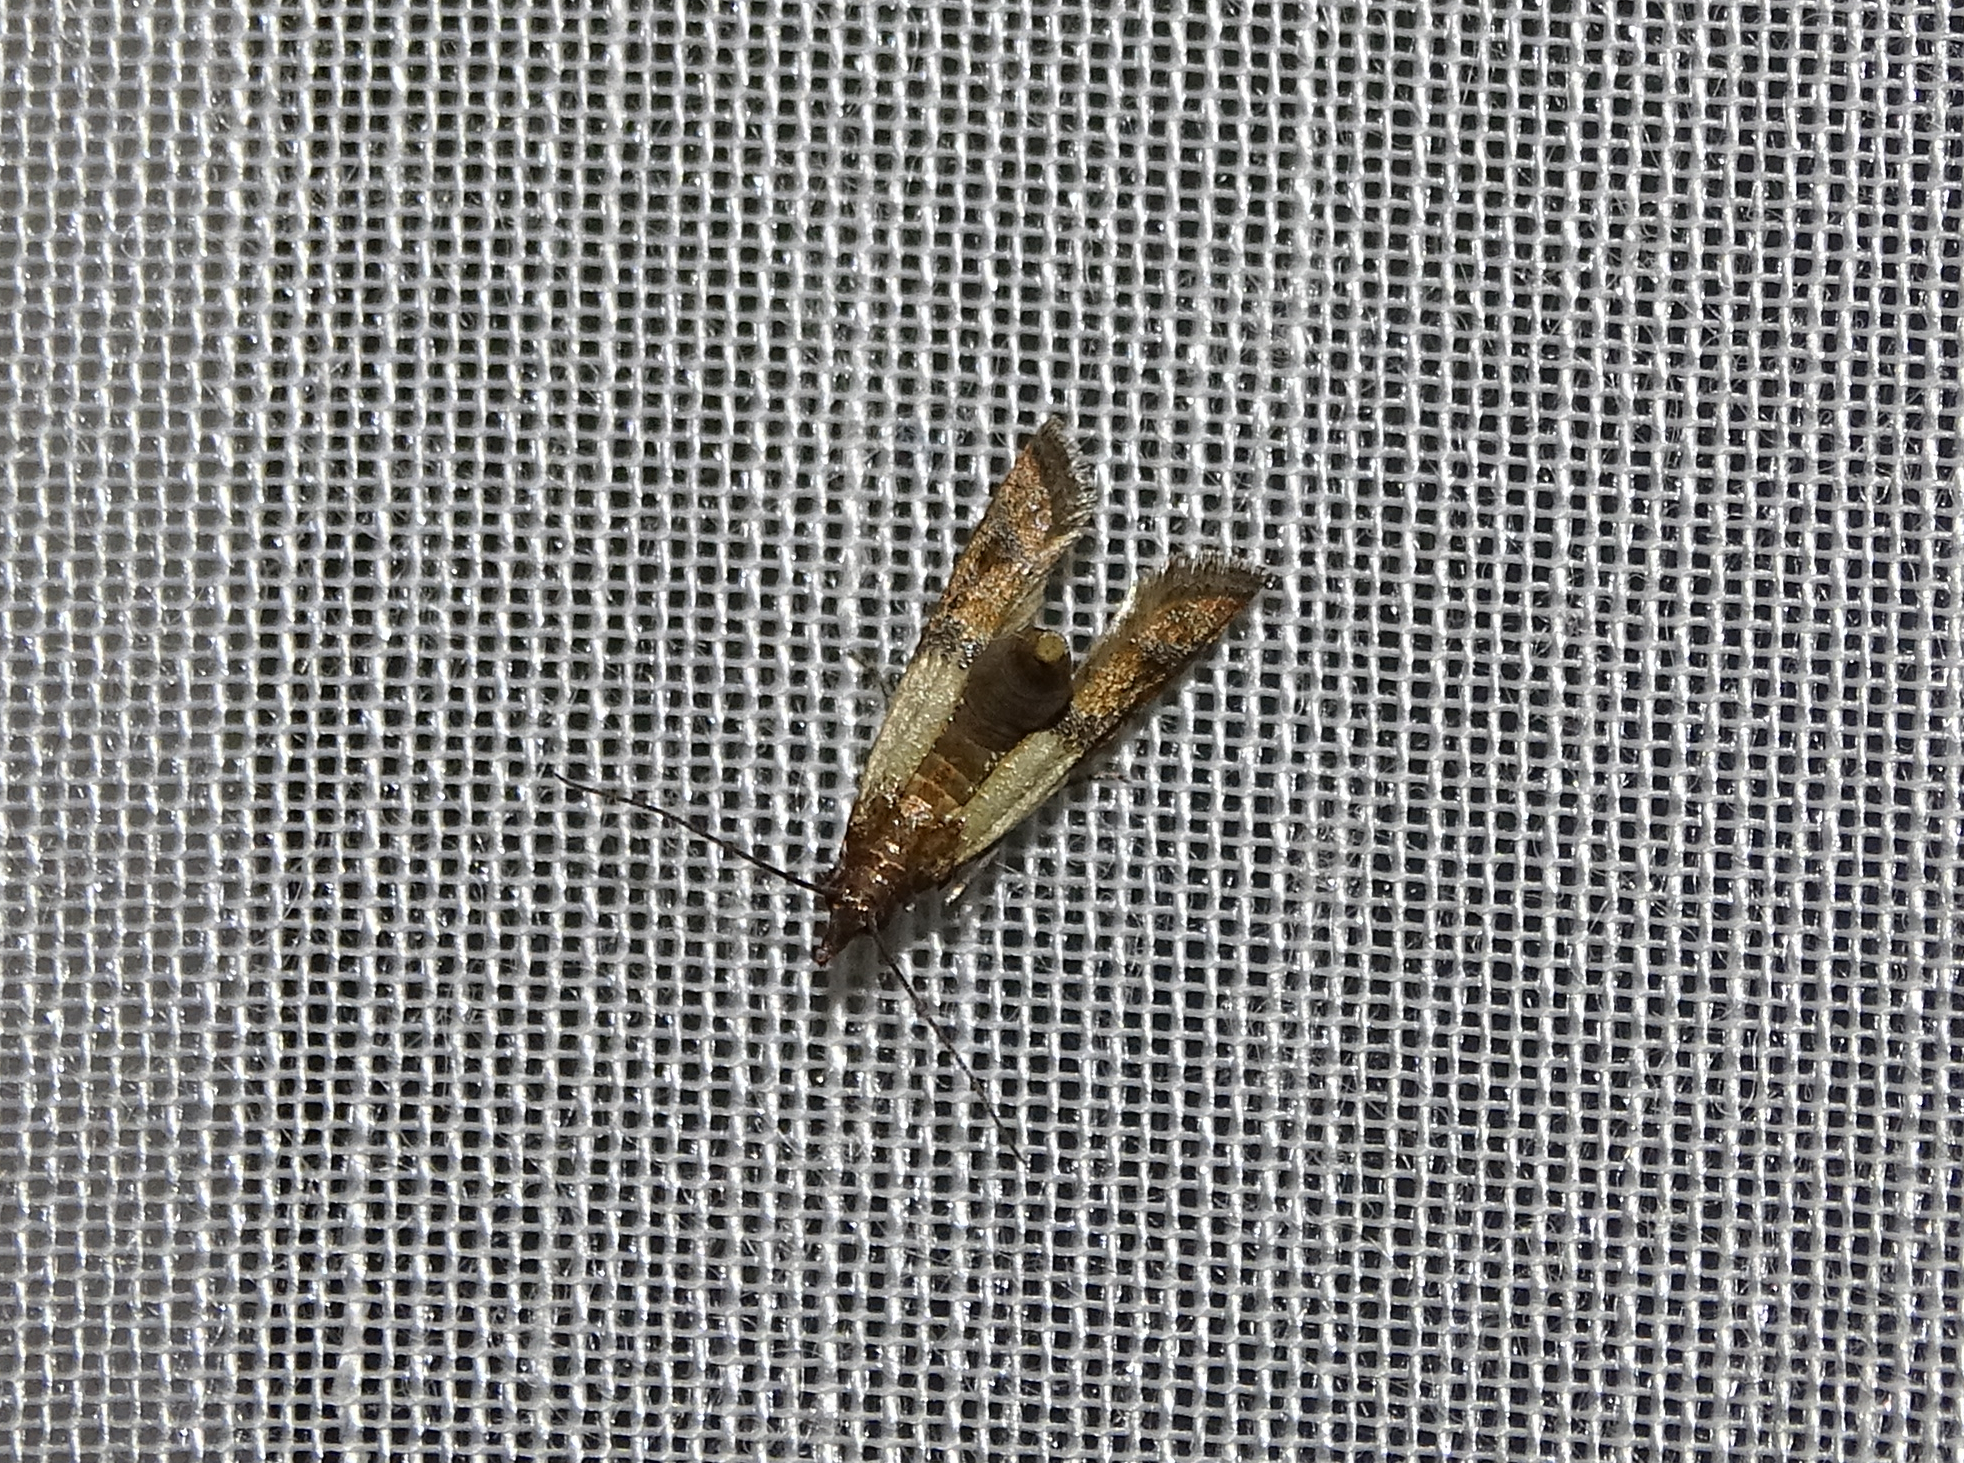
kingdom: Animalia
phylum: Arthropoda
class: Insecta
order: Lepidoptera
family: Pyralidae
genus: Plodia
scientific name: Plodia interpunctella
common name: Indian meal moth
